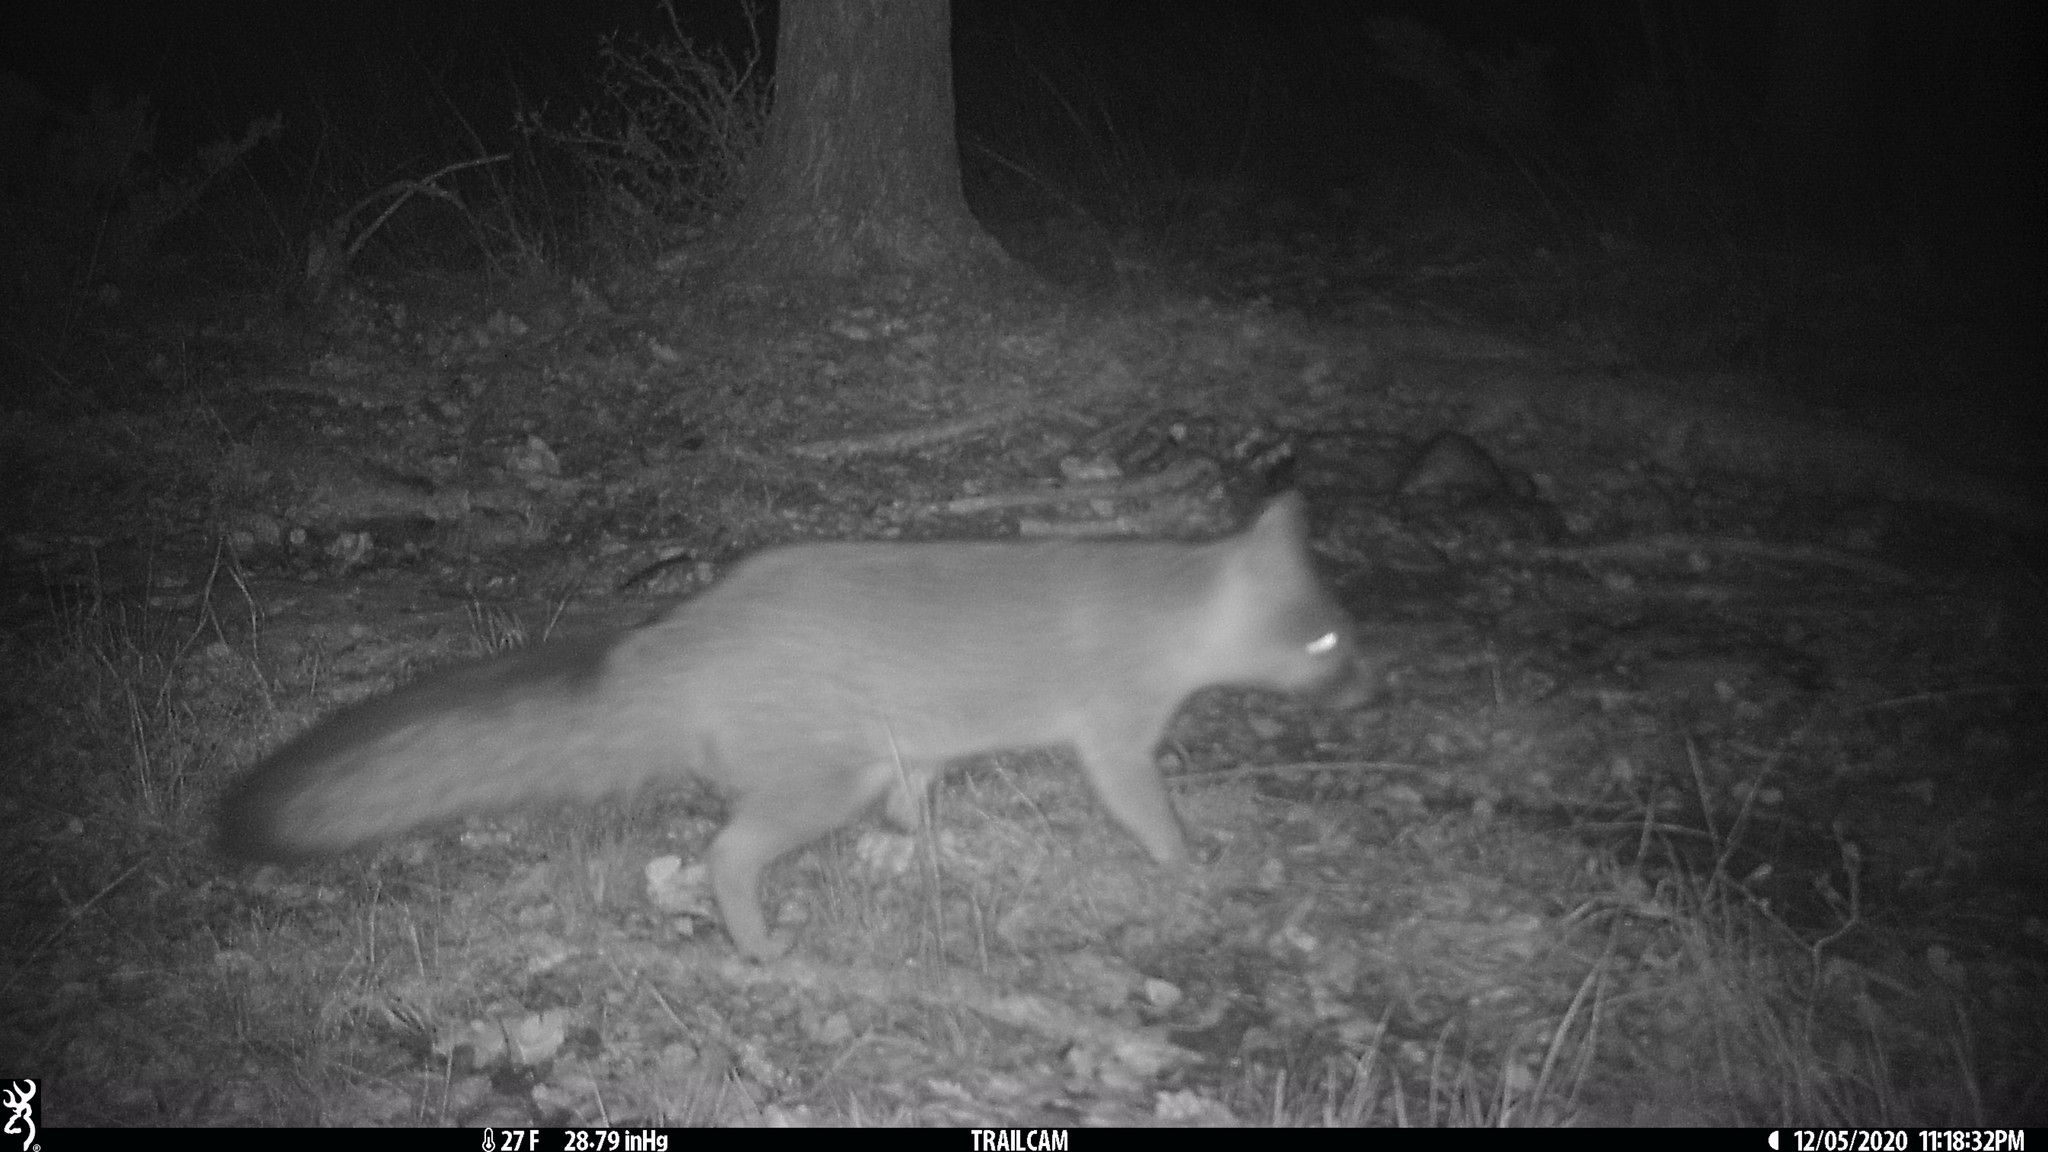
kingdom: Animalia
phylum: Chordata
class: Mammalia
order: Carnivora
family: Canidae
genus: Urocyon
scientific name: Urocyon cinereoargenteus
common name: Gray fox
